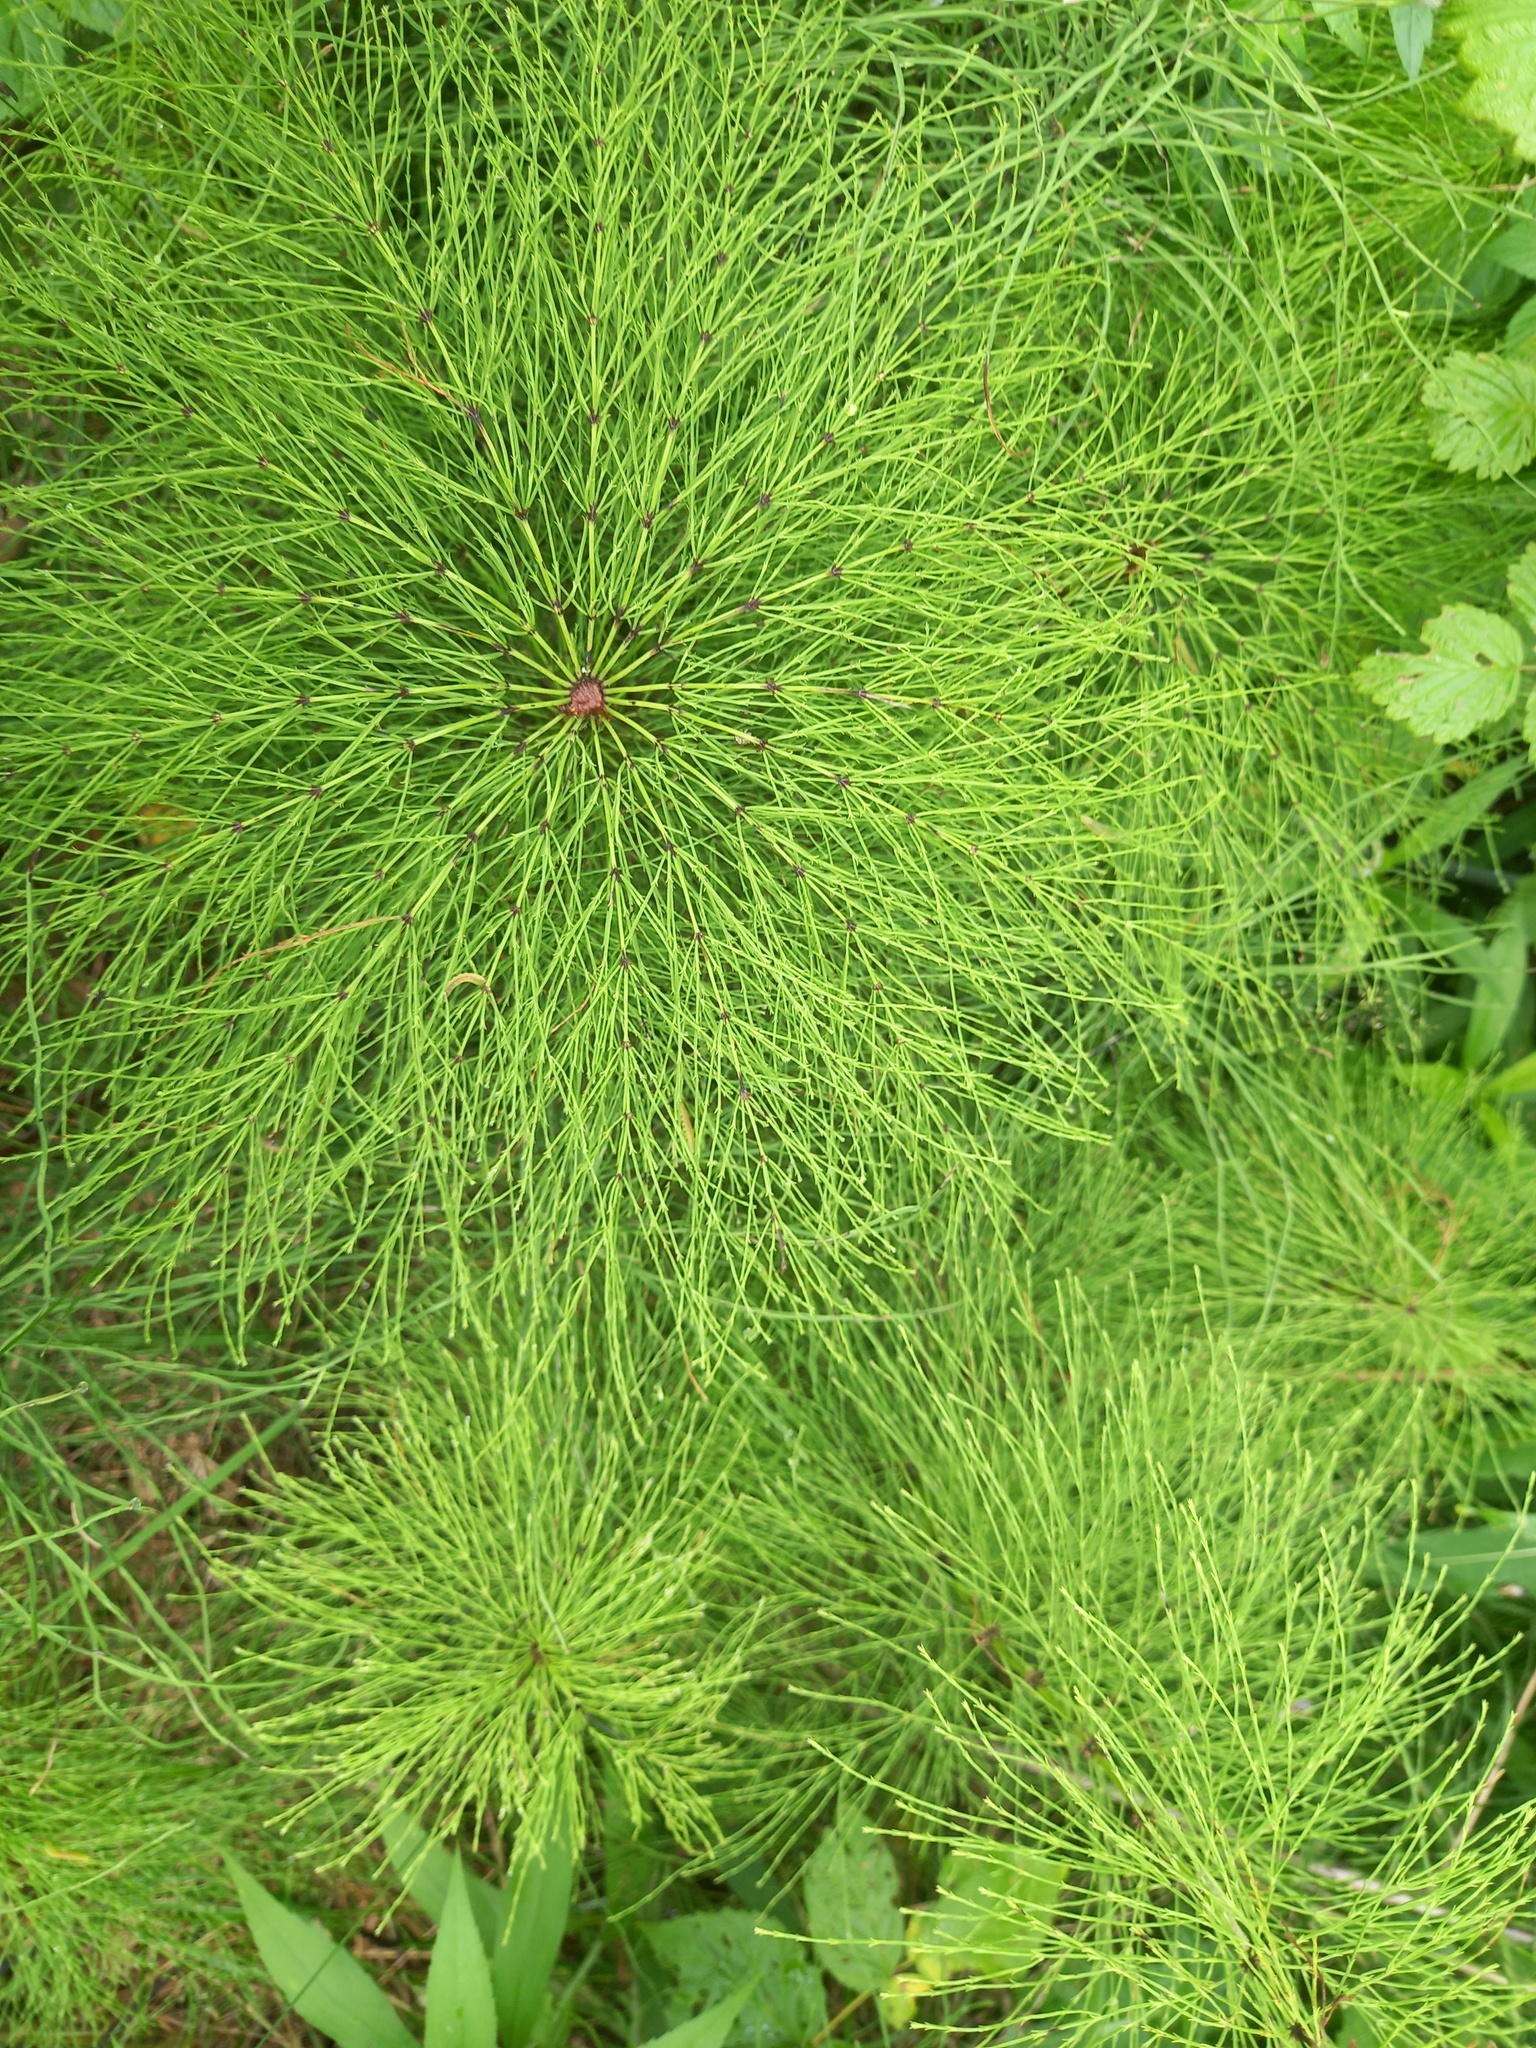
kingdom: Plantae
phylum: Tracheophyta
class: Polypodiopsida
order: Equisetales
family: Equisetaceae
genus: Equisetum
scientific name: Equisetum sylvaticum
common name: Wood horsetail
